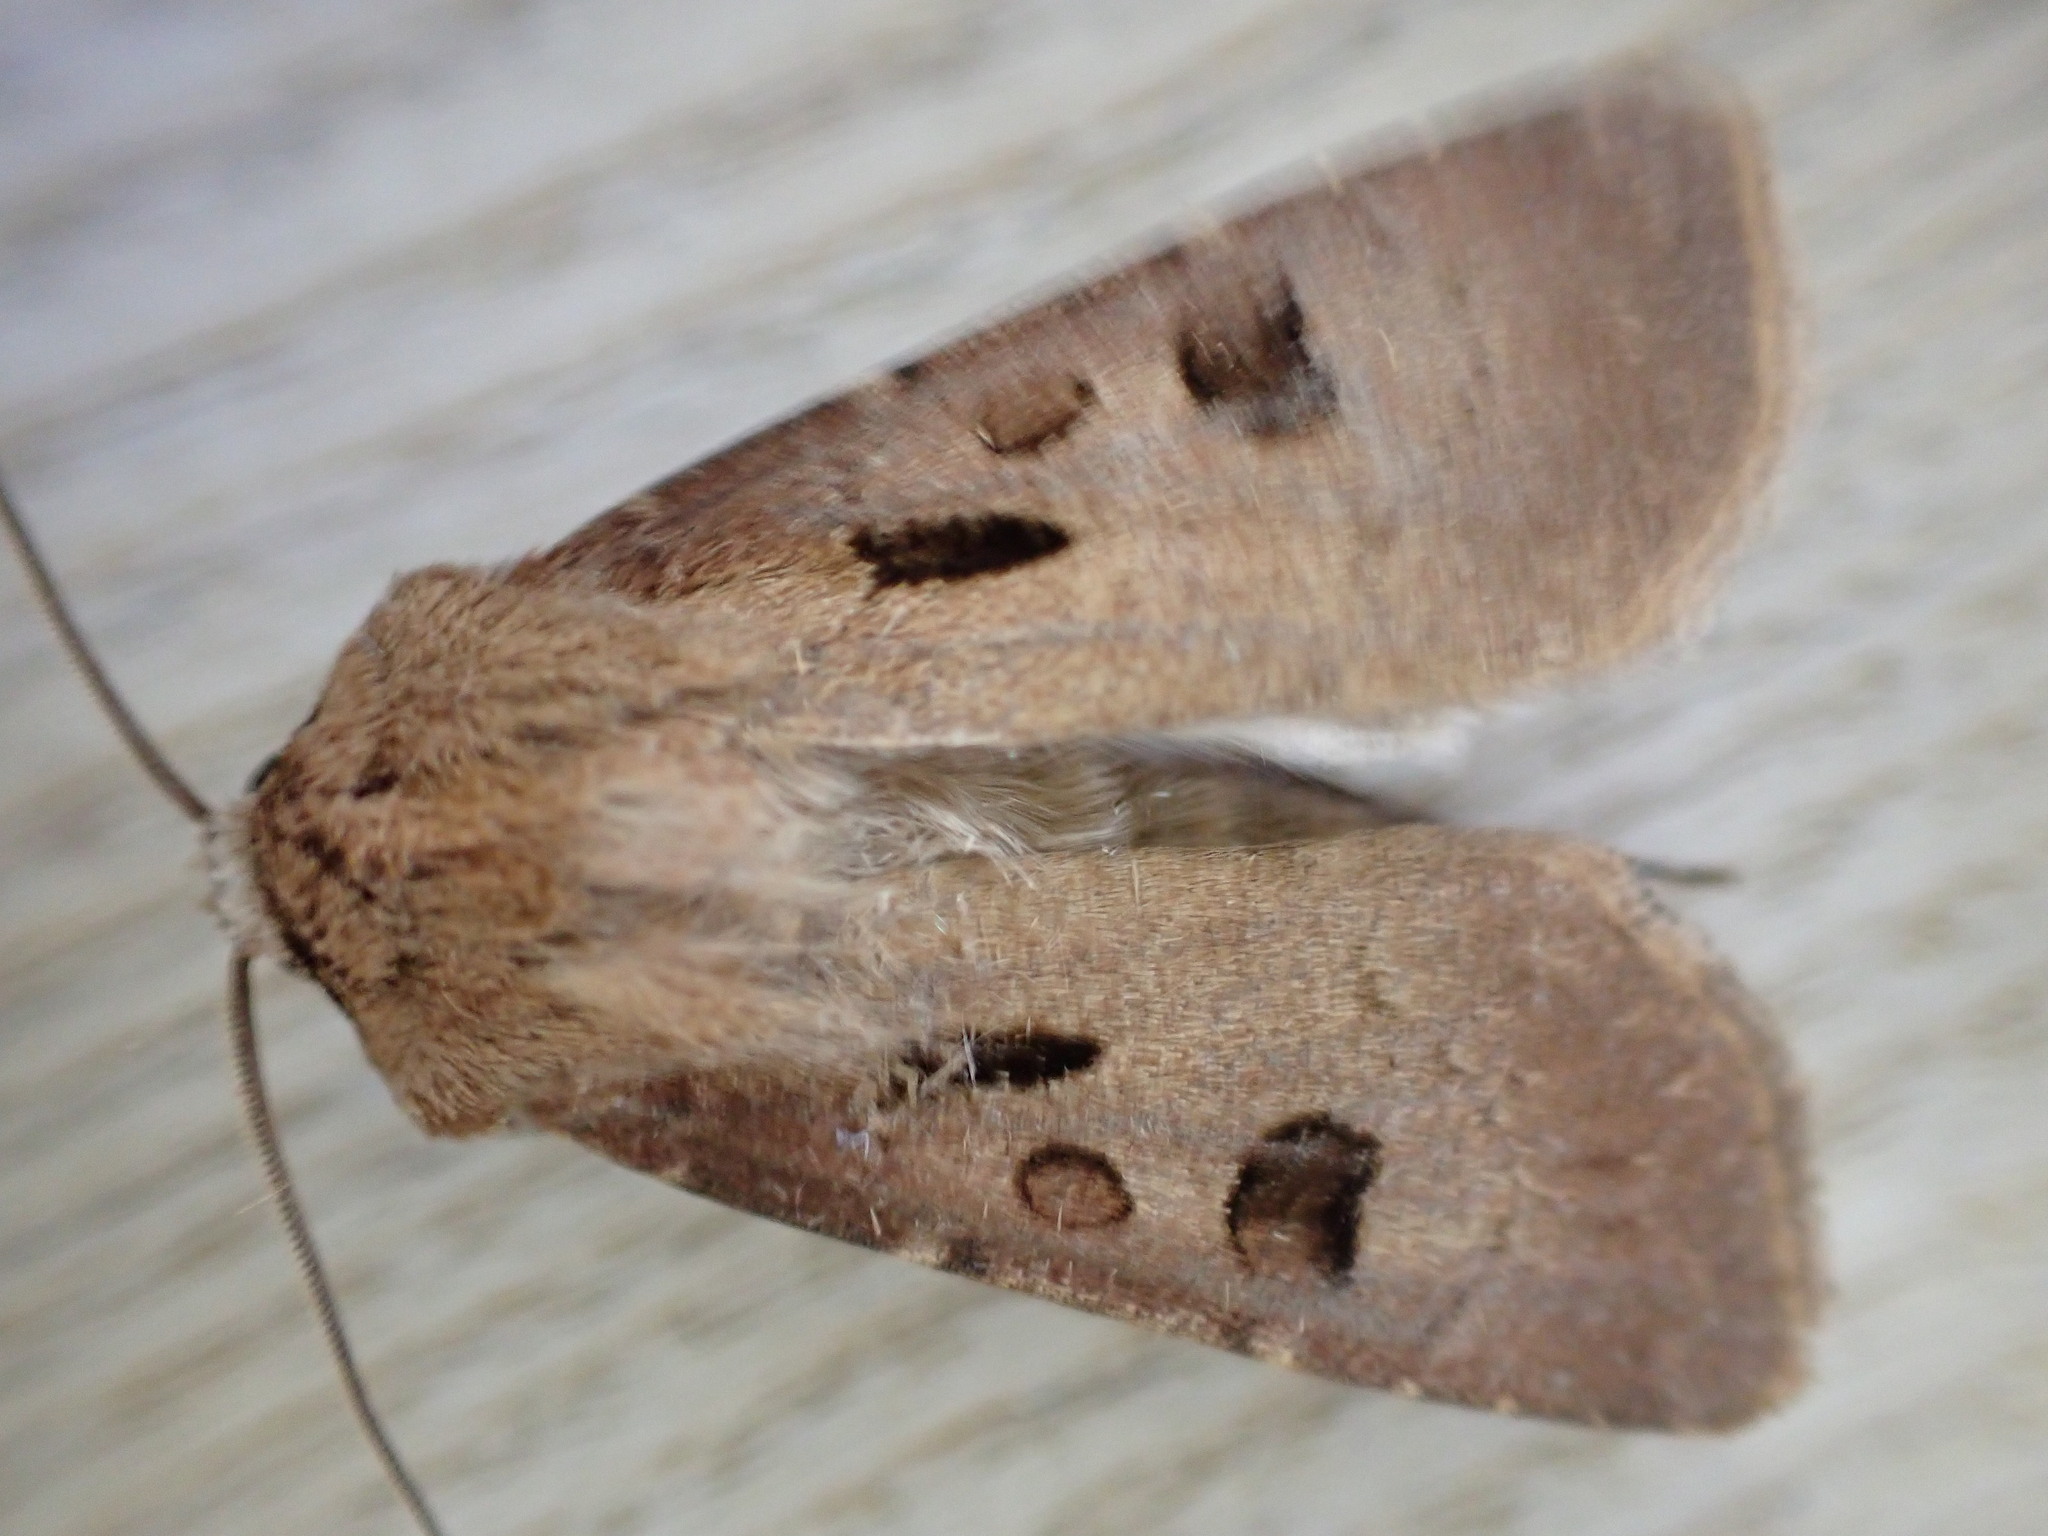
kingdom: Animalia
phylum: Arthropoda
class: Insecta
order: Lepidoptera
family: Noctuidae
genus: Agrotis
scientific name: Agrotis exclamationis
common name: Heart and dart
